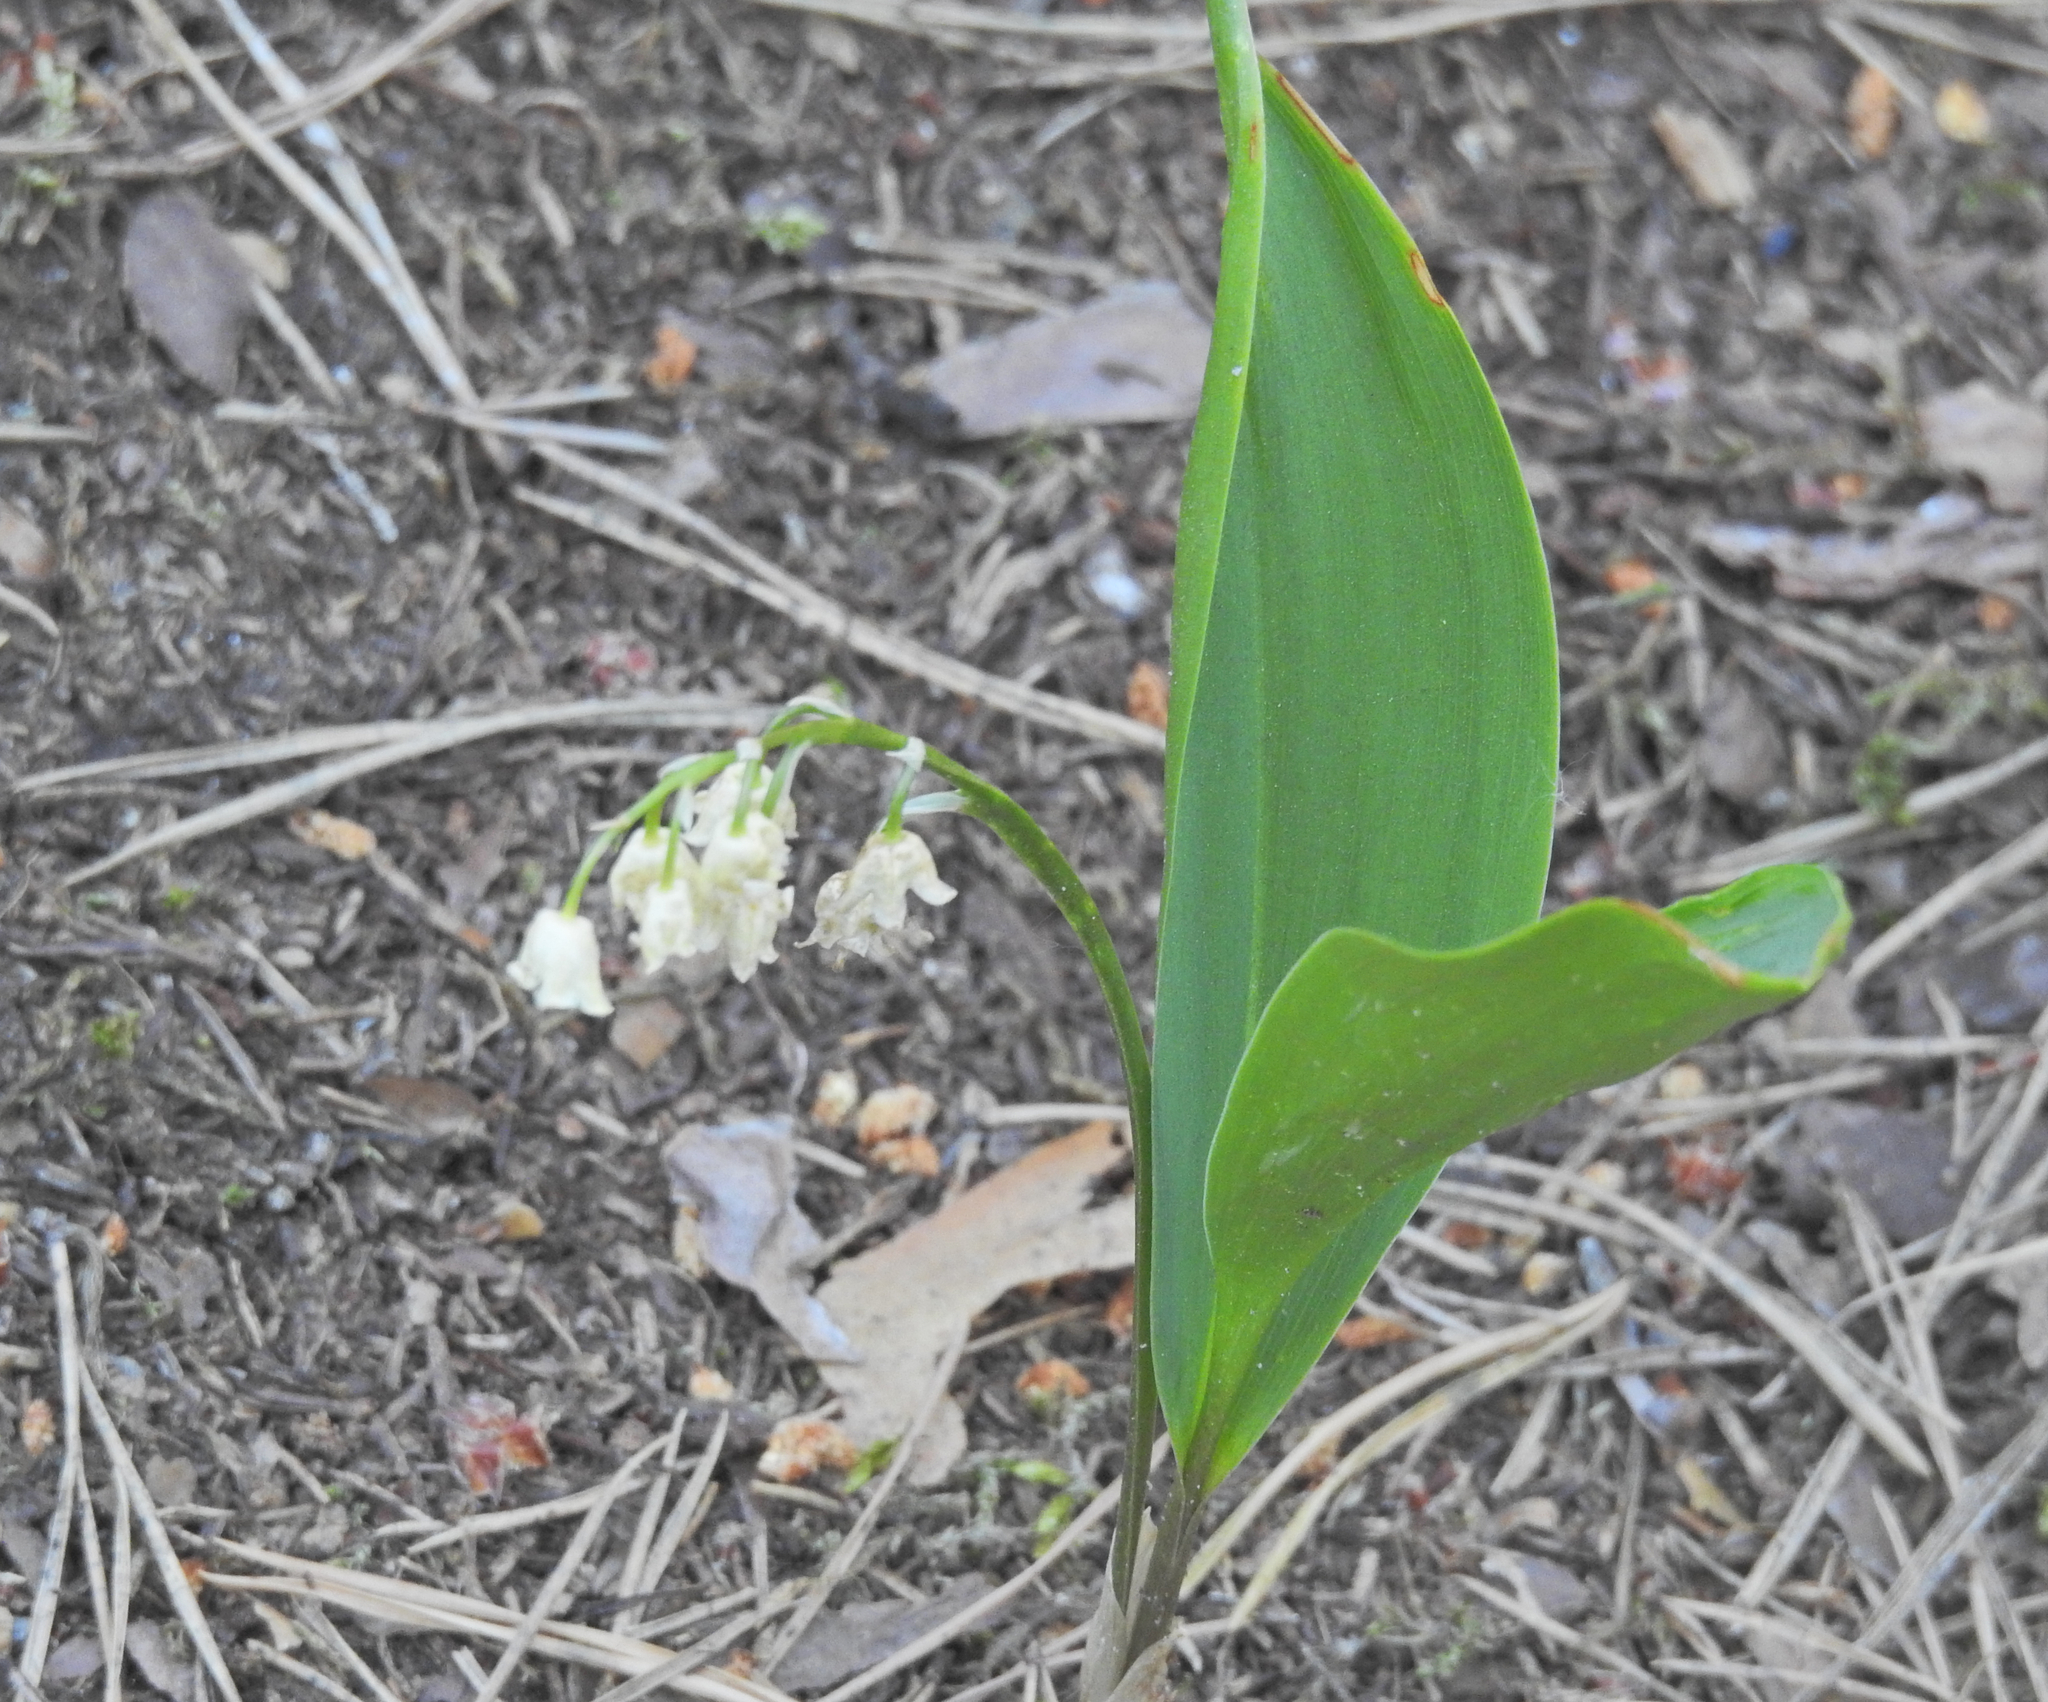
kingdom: Plantae
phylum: Tracheophyta
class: Liliopsida
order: Asparagales
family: Asparagaceae
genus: Convallaria
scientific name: Convallaria majalis
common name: Lily-of-the-valley
